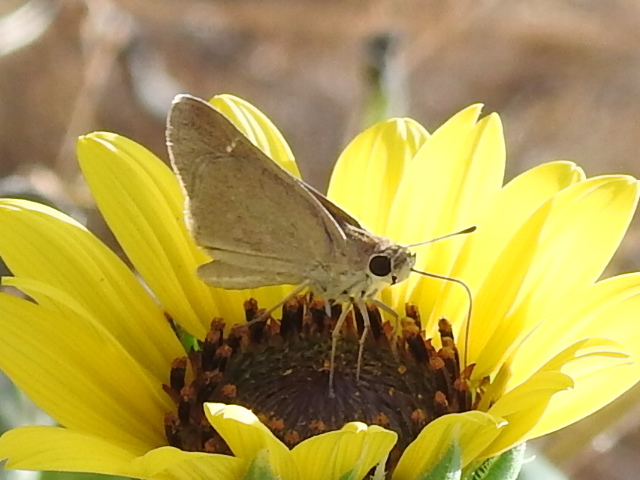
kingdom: Animalia
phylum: Arthropoda
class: Insecta
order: Lepidoptera
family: Hesperiidae
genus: Lerodea
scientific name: Lerodea eufala
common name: Eufala skipper
